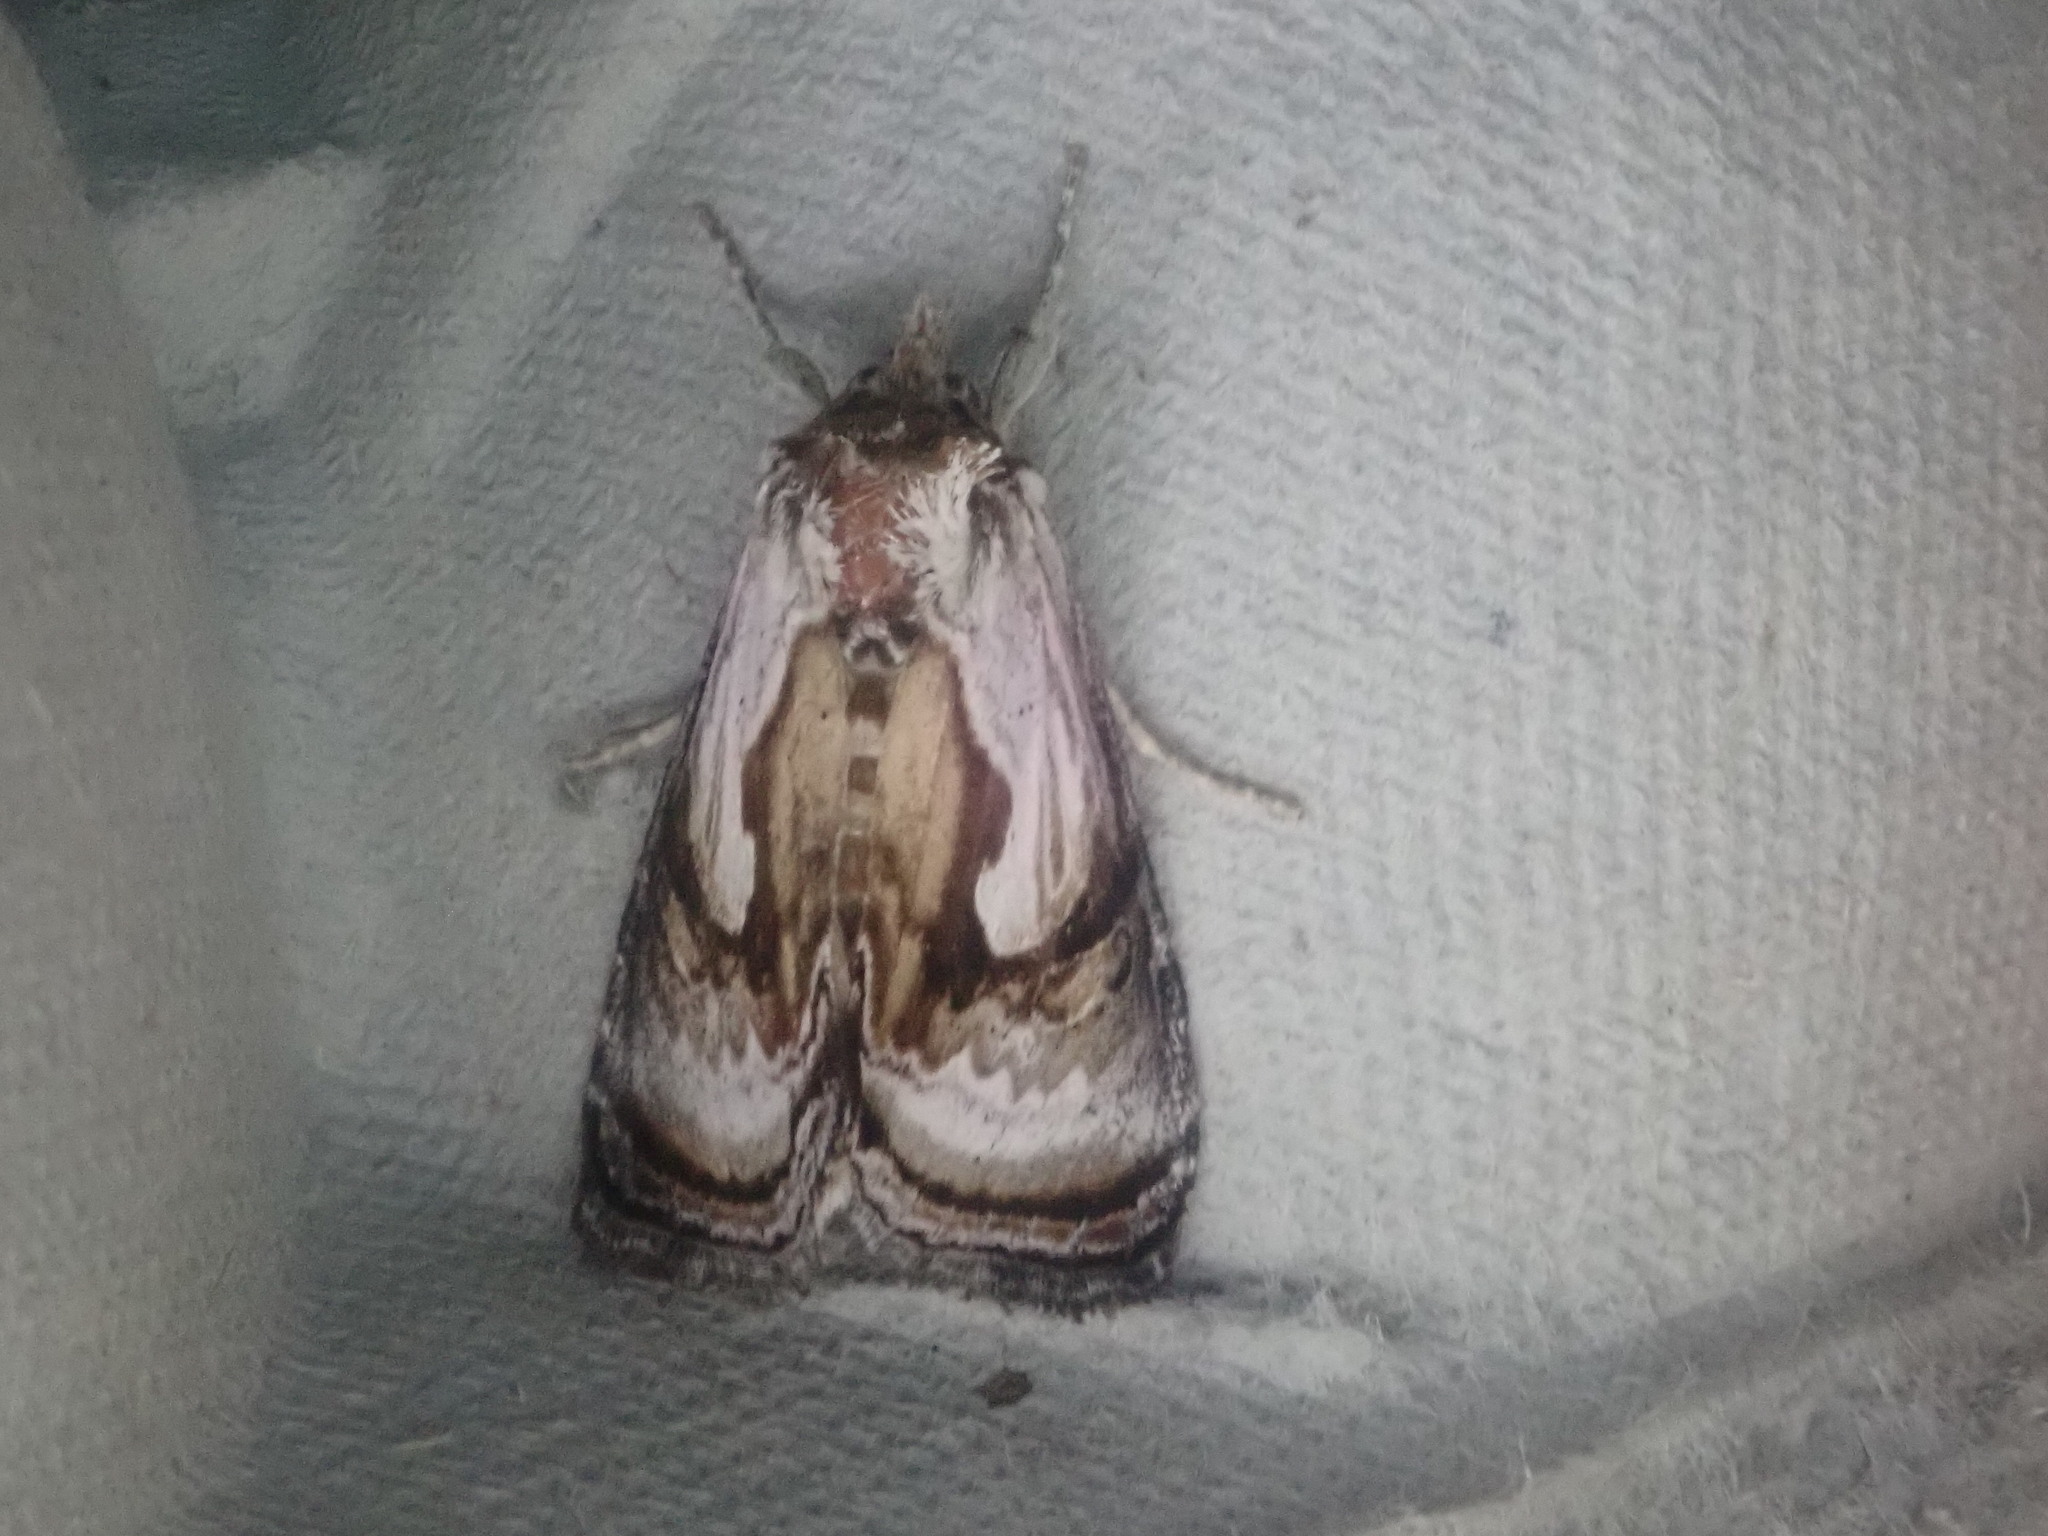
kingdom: Animalia
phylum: Arthropoda
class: Insecta
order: Lepidoptera
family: Noctuidae
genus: Chrysanympha
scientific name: Chrysanympha formosa
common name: Formosa looper moth
